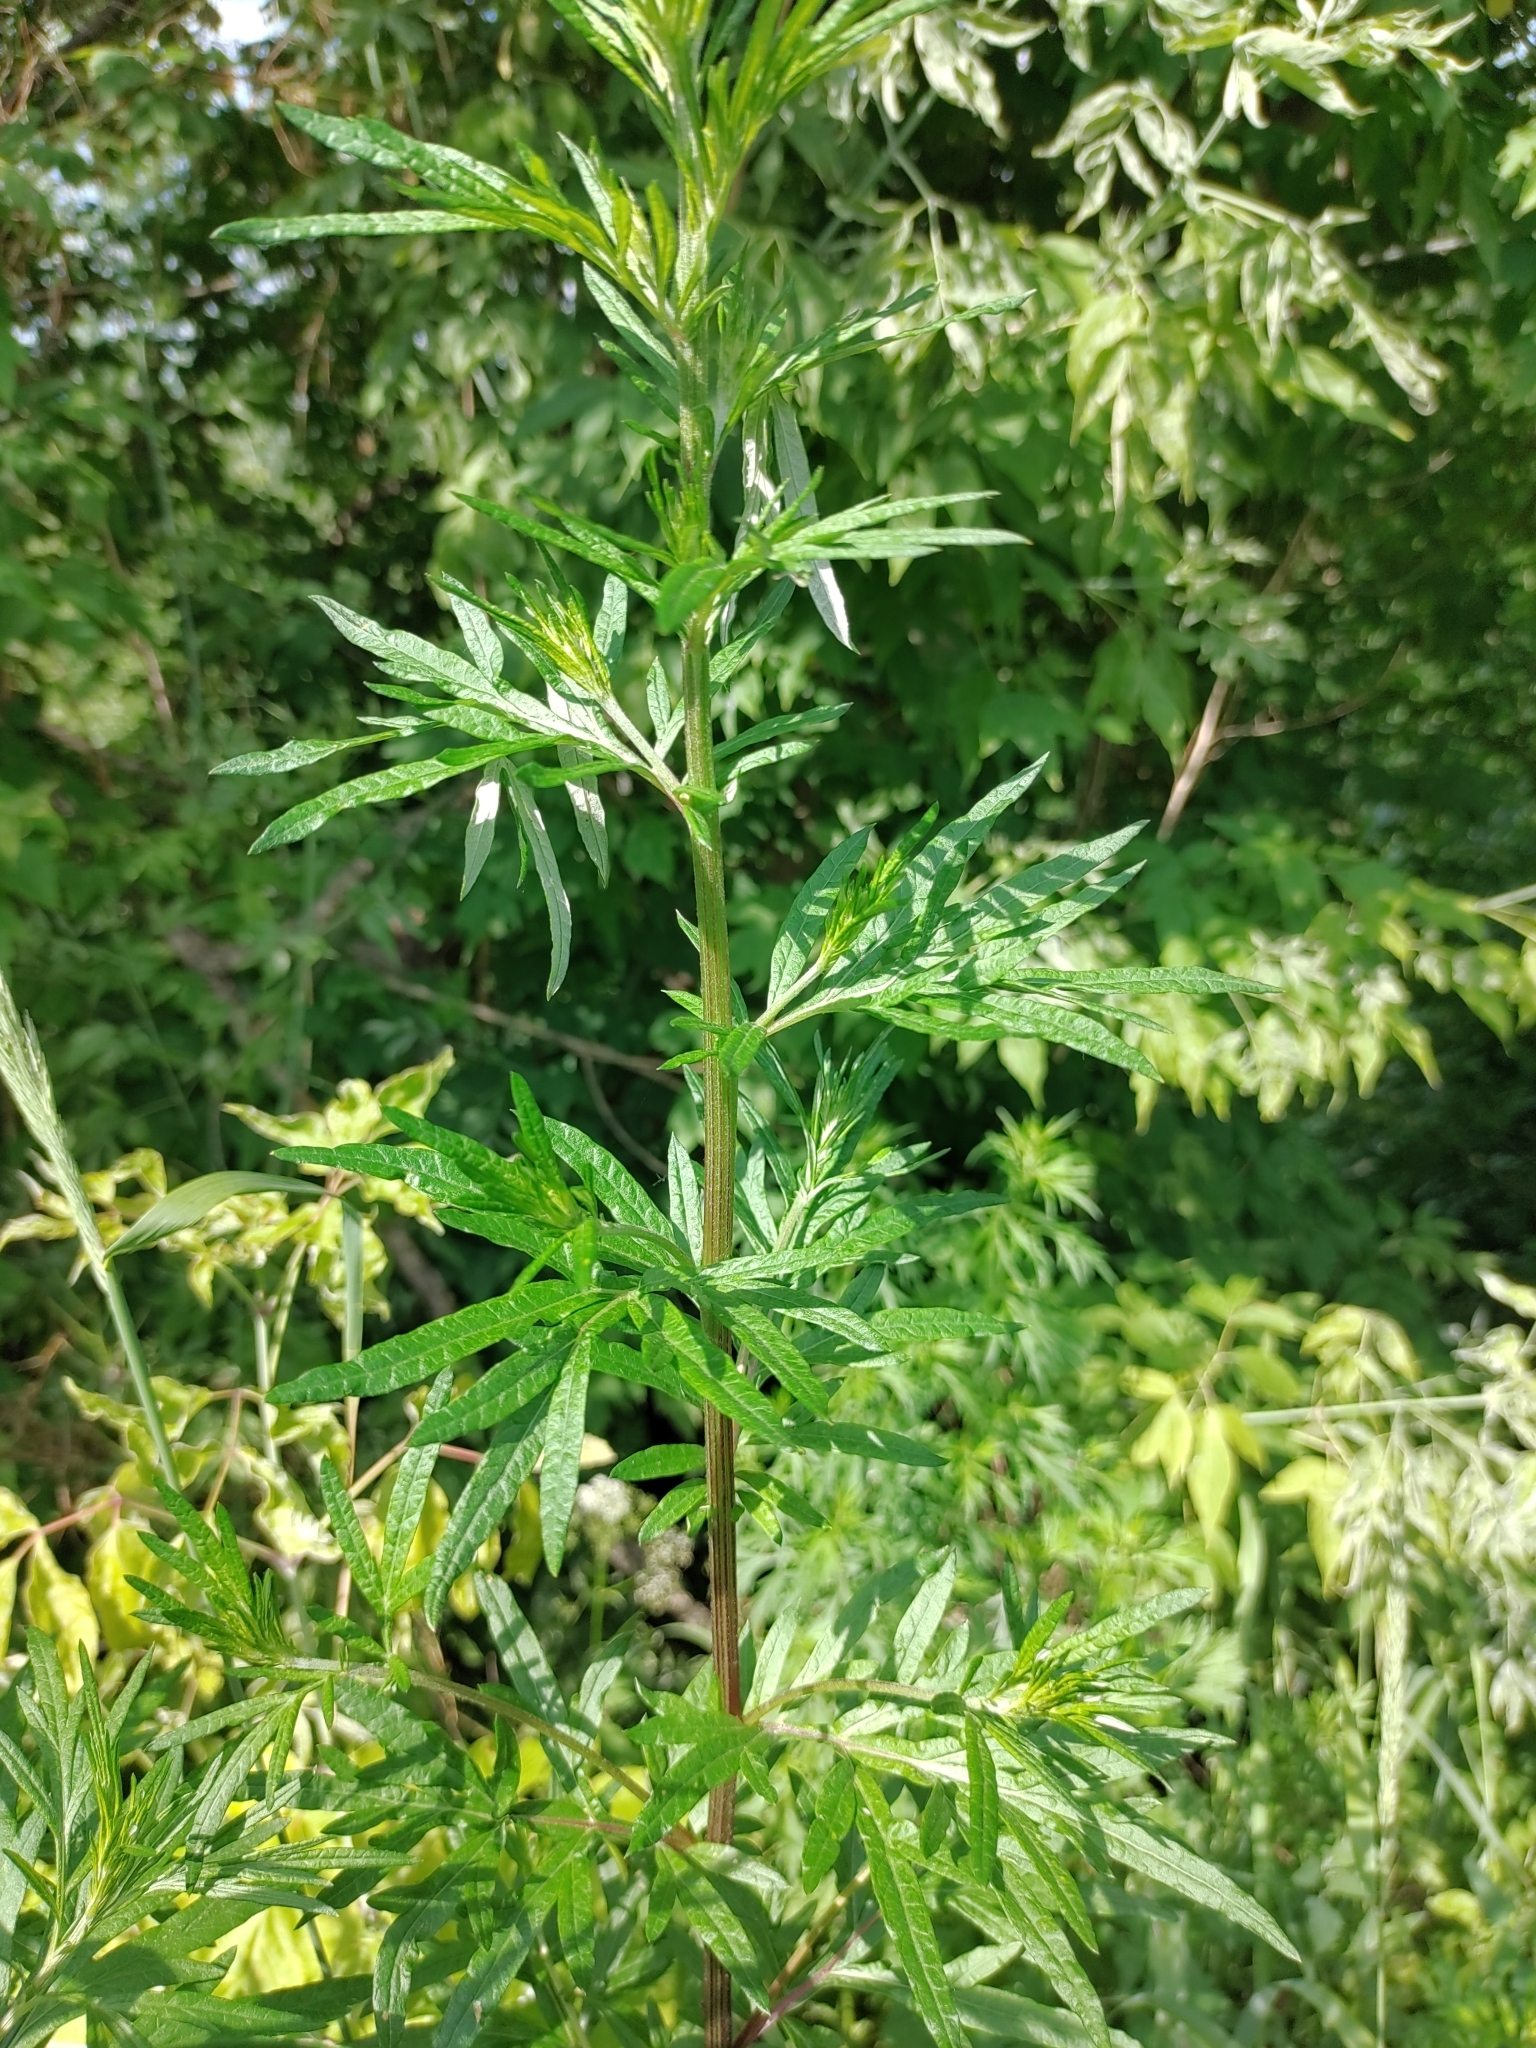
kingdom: Plantae
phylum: Tracheophyta
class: Magnoliopsida
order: Asterales
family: Asteraceae
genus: Artemisia
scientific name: Artemisia vulgaris
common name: Mugwort
